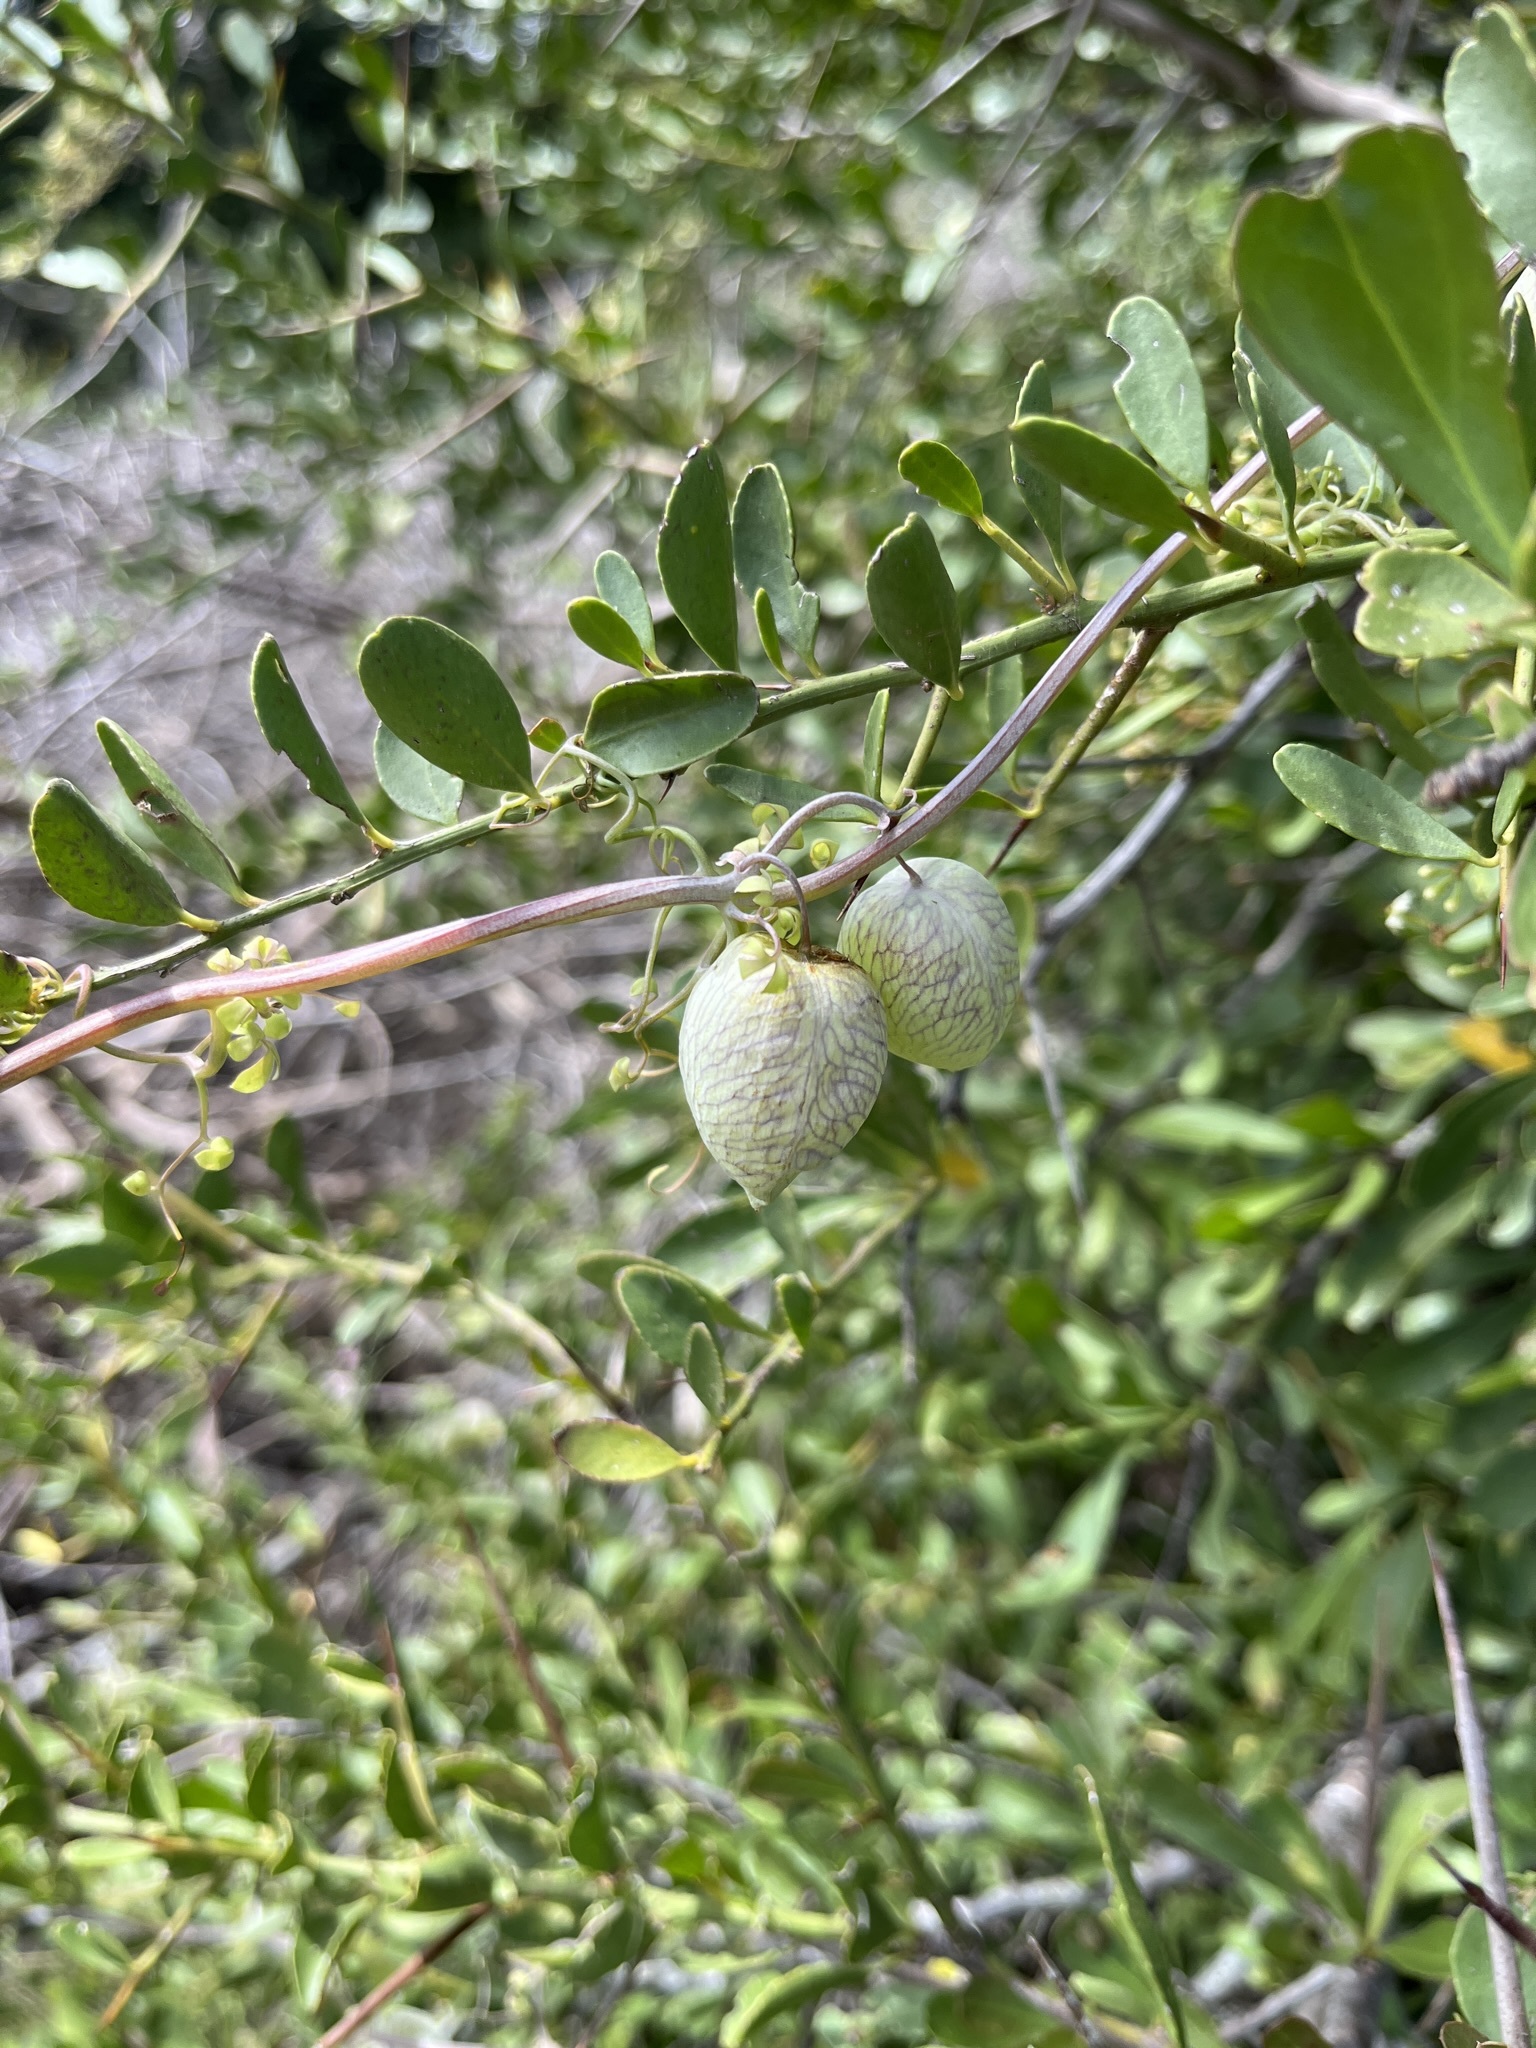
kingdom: Plantae
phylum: Tracheophyta
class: Magnoliopsida
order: Ranunculales
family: Papaveraceae
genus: Cysticapnos
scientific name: Cysticapnos vesicaria
